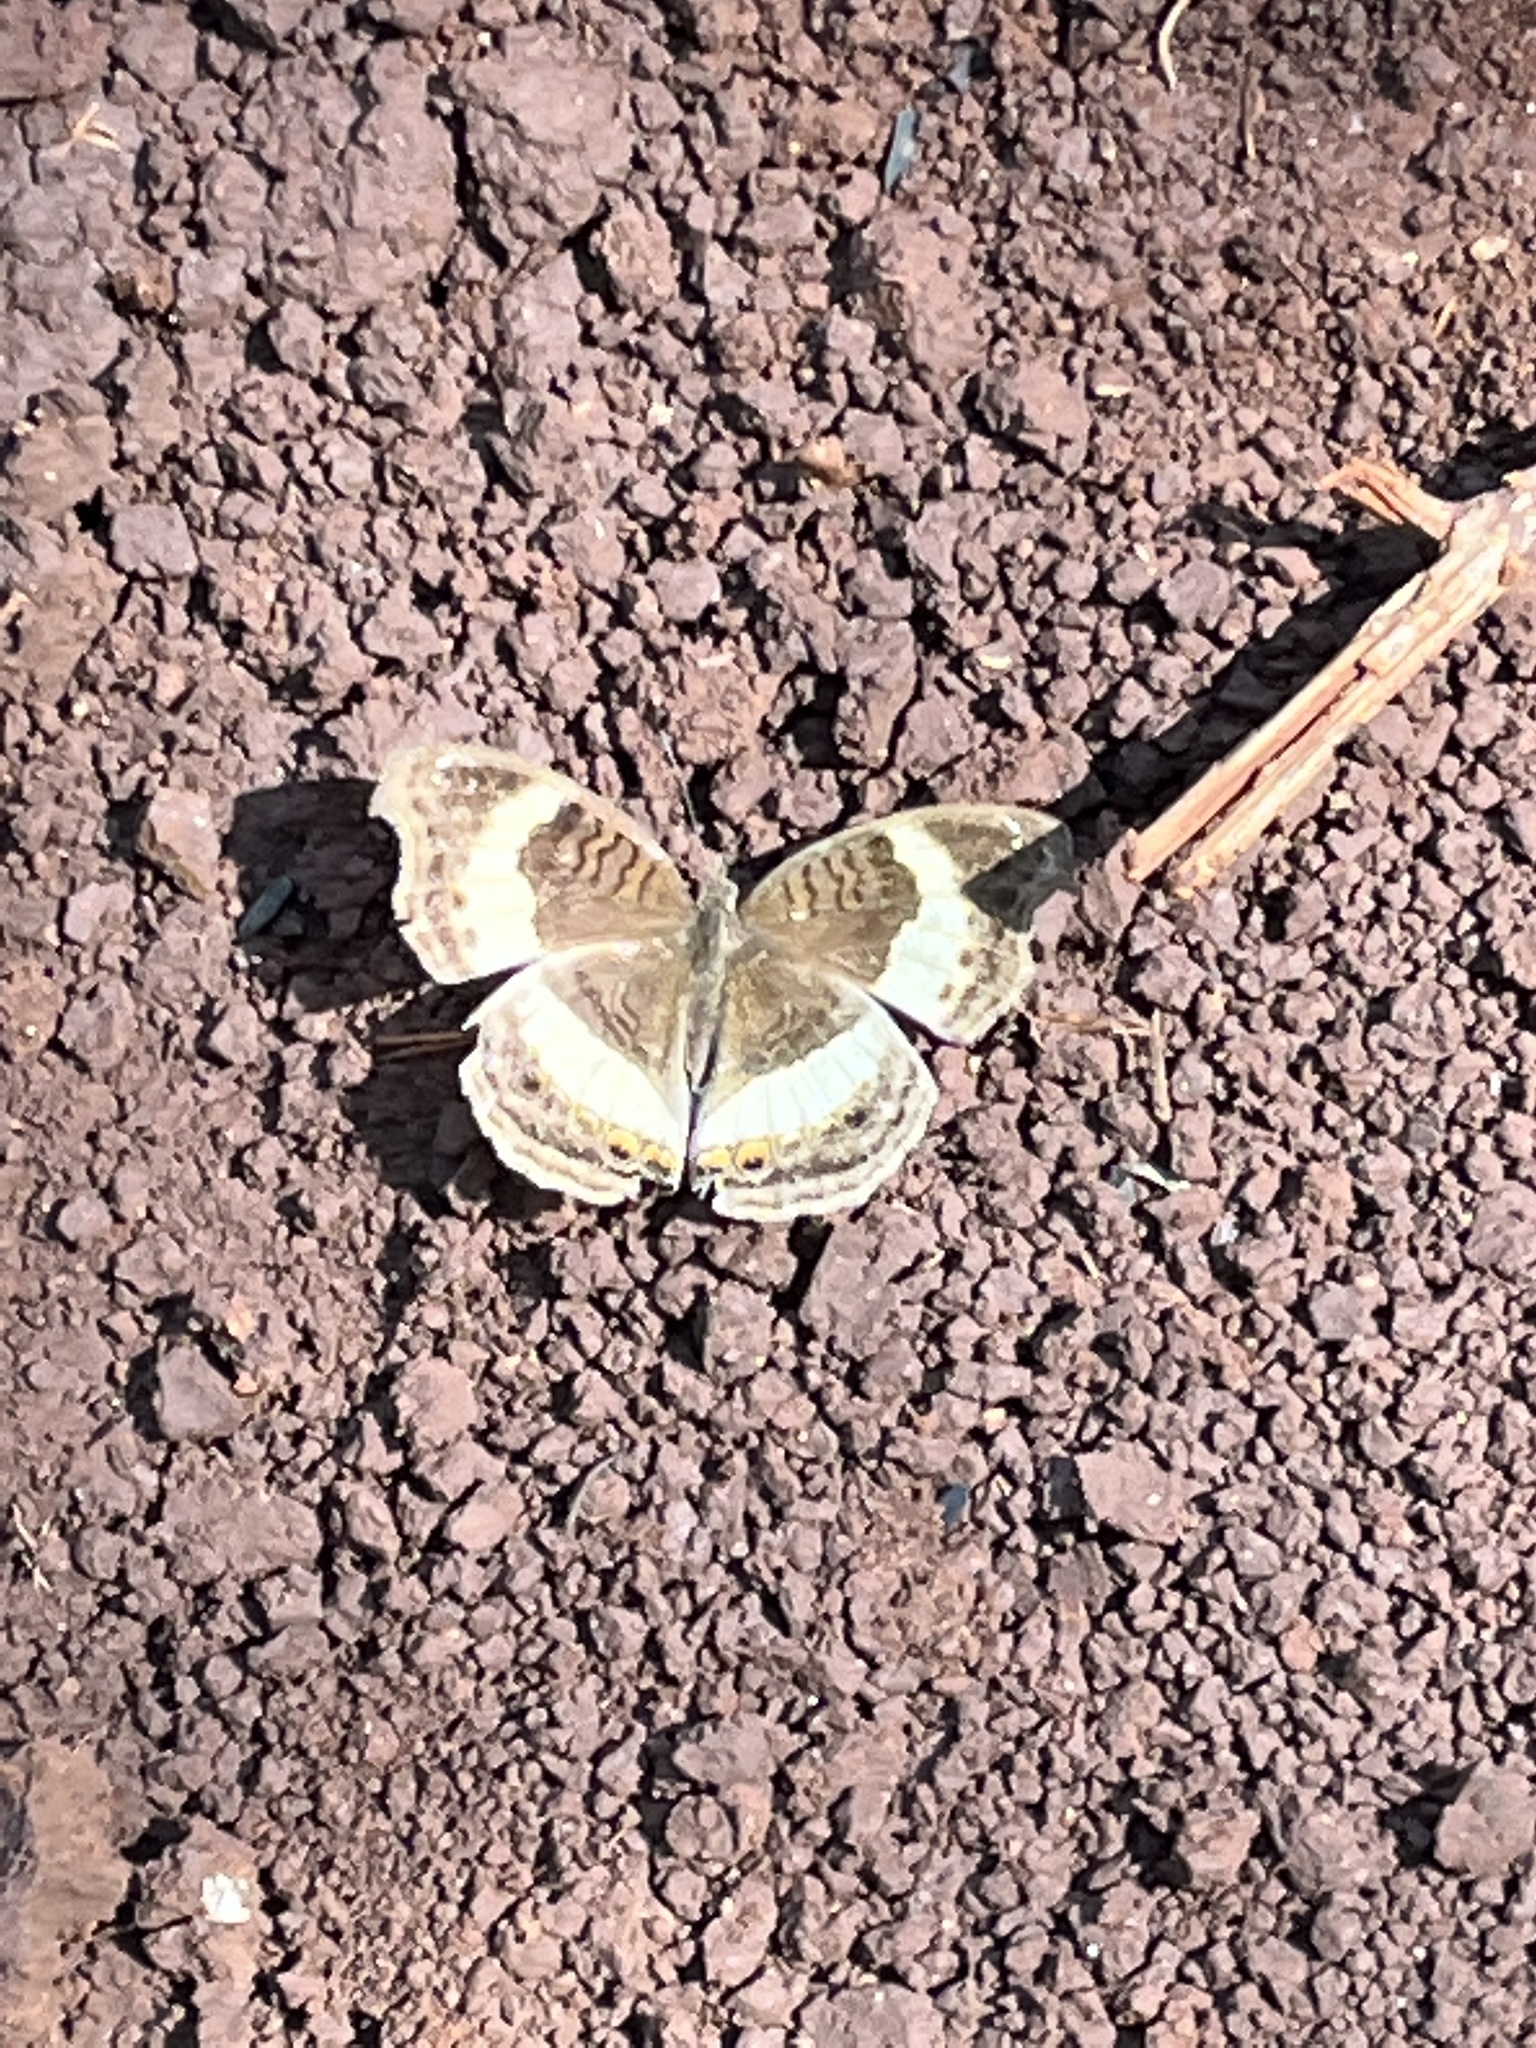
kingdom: Animalia
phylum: Arthropoda
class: Insecta
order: Lepidoptera
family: Nymphalidae
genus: Junonia
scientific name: Junonia terea
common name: Soldier pansy
